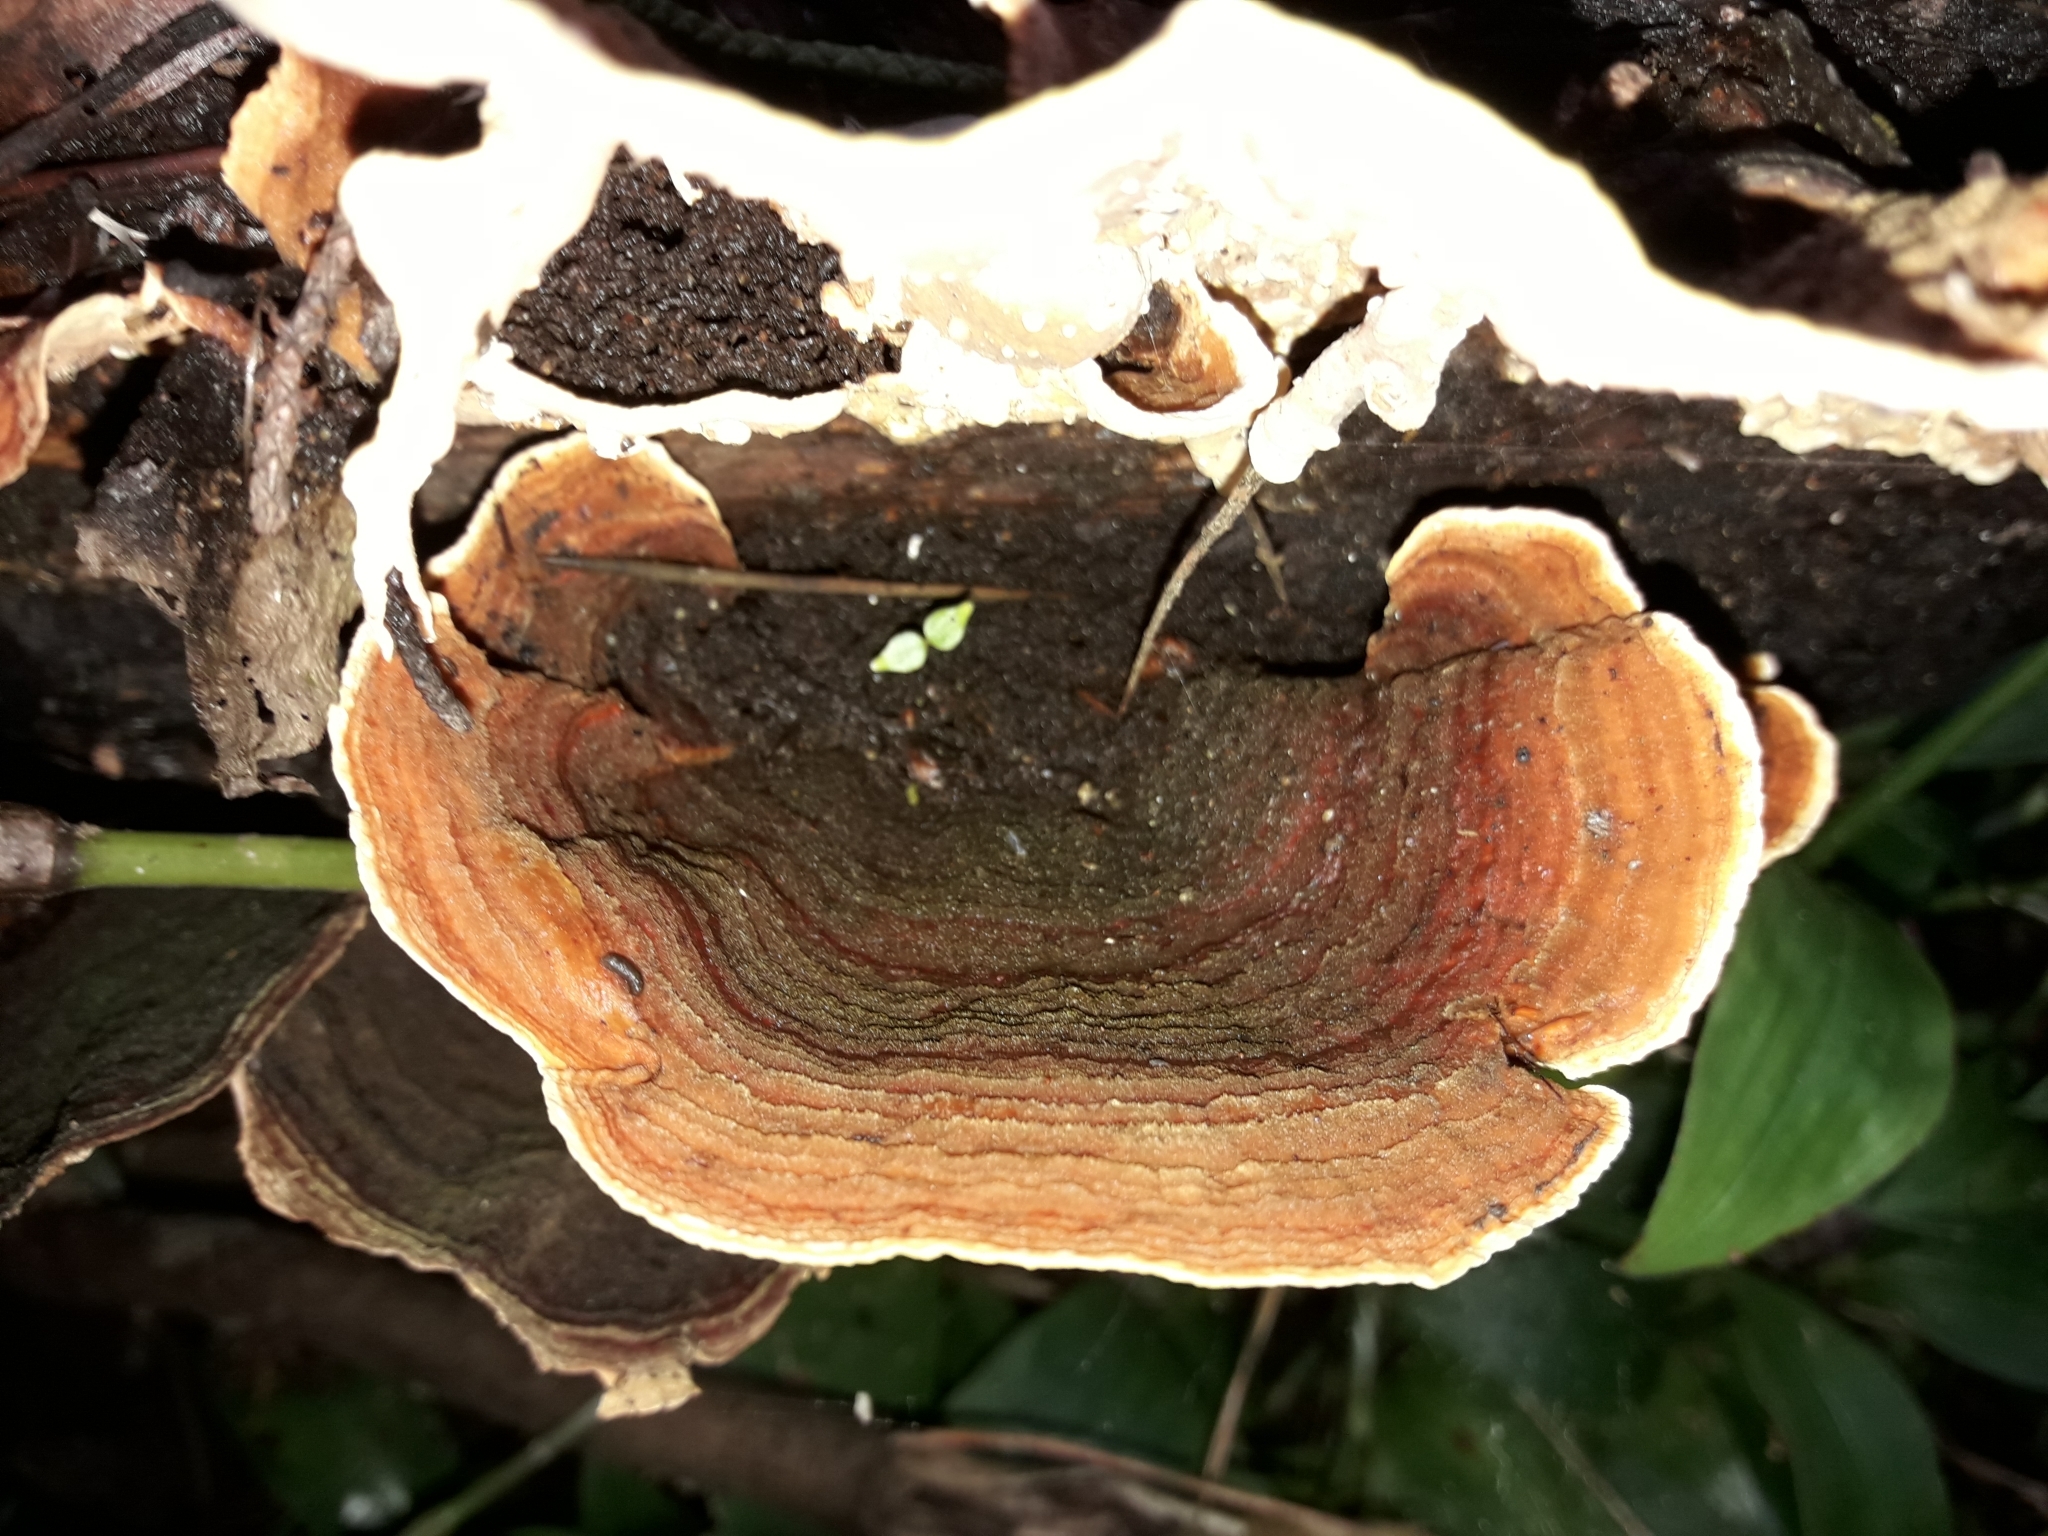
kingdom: Fungi
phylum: Basidiomycota
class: Agaricomycetes
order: Russulales
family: Stereaceae
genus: Stereum
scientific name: Stereum versicolor
